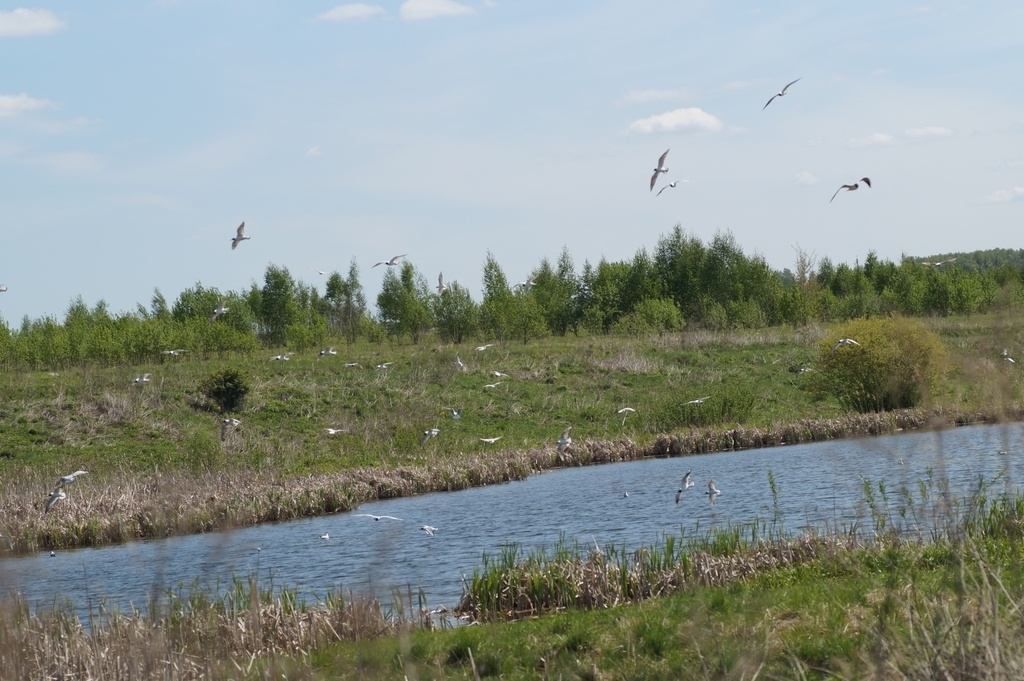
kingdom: Animalia
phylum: Chordata
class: Aves
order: Charadriiformes
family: Laridae
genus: Chroicocephalus
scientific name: Chroicocephalus ridibundus
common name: Black-headed gull
